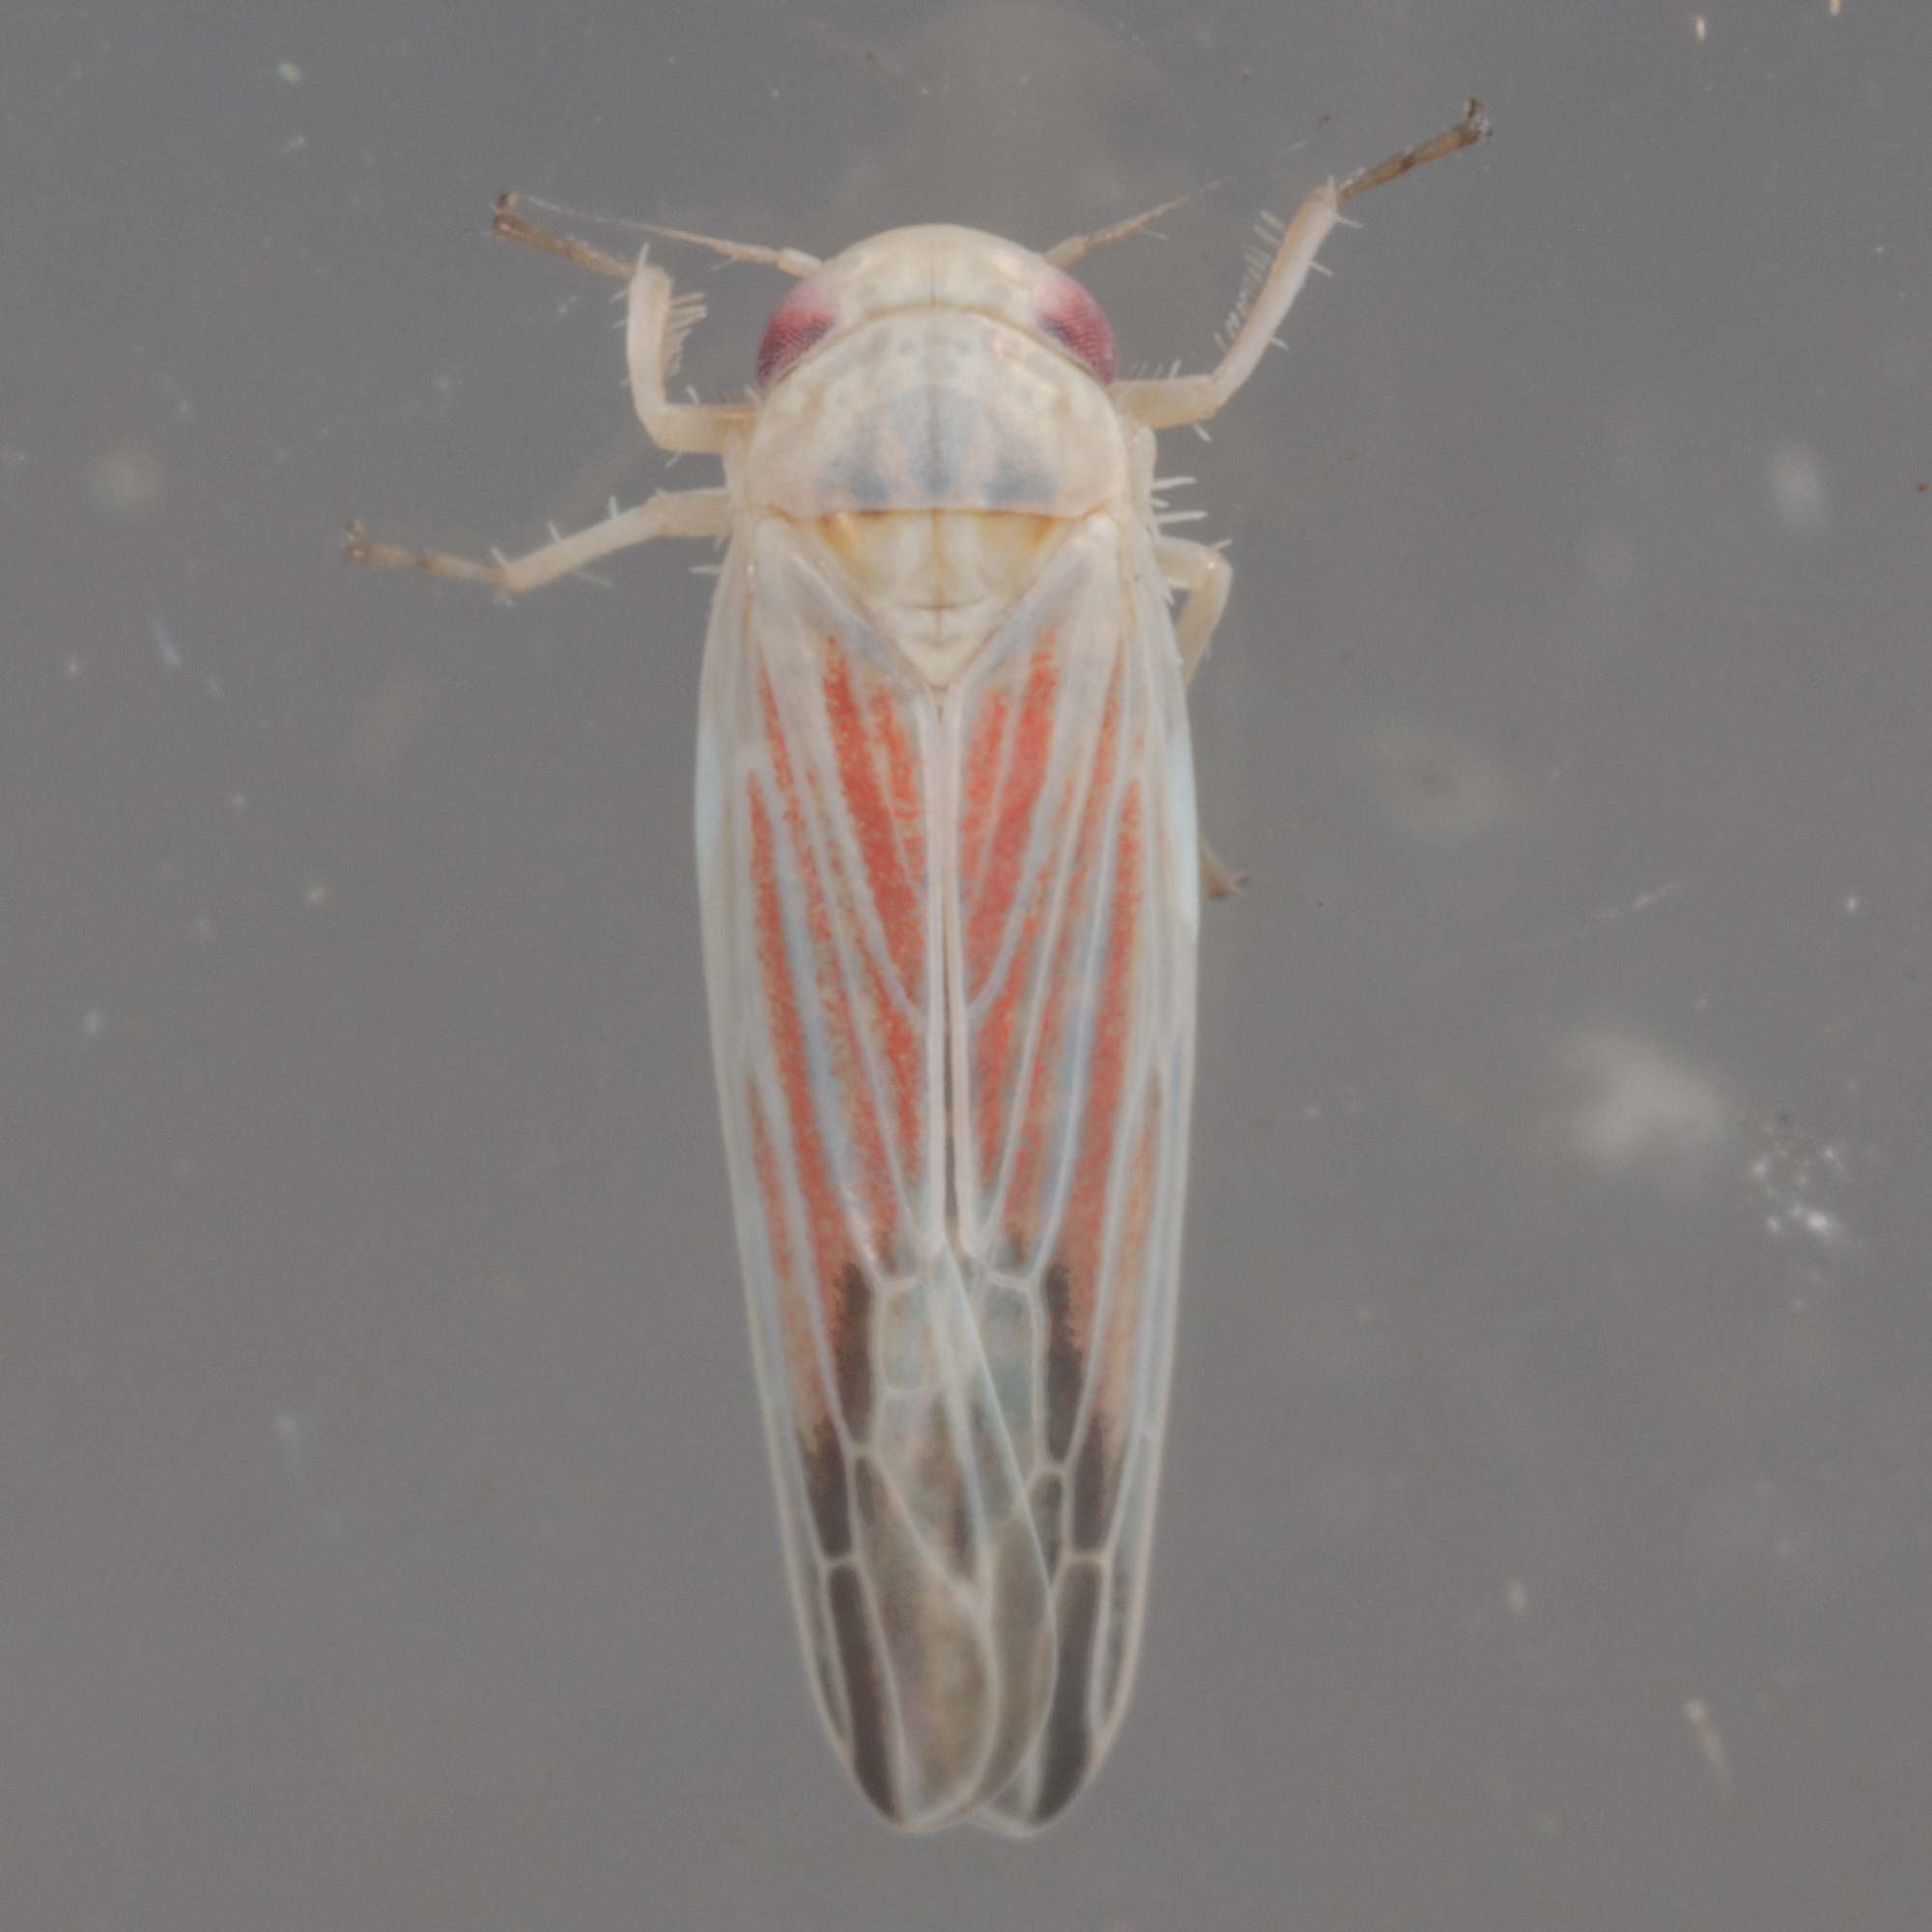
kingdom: Animalia
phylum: Arthropoda
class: Insecta
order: Hemiptera
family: Cicadellidae
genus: Balclutha
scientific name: Balclutha rubrostriata
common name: Red-streaked leafhopper
